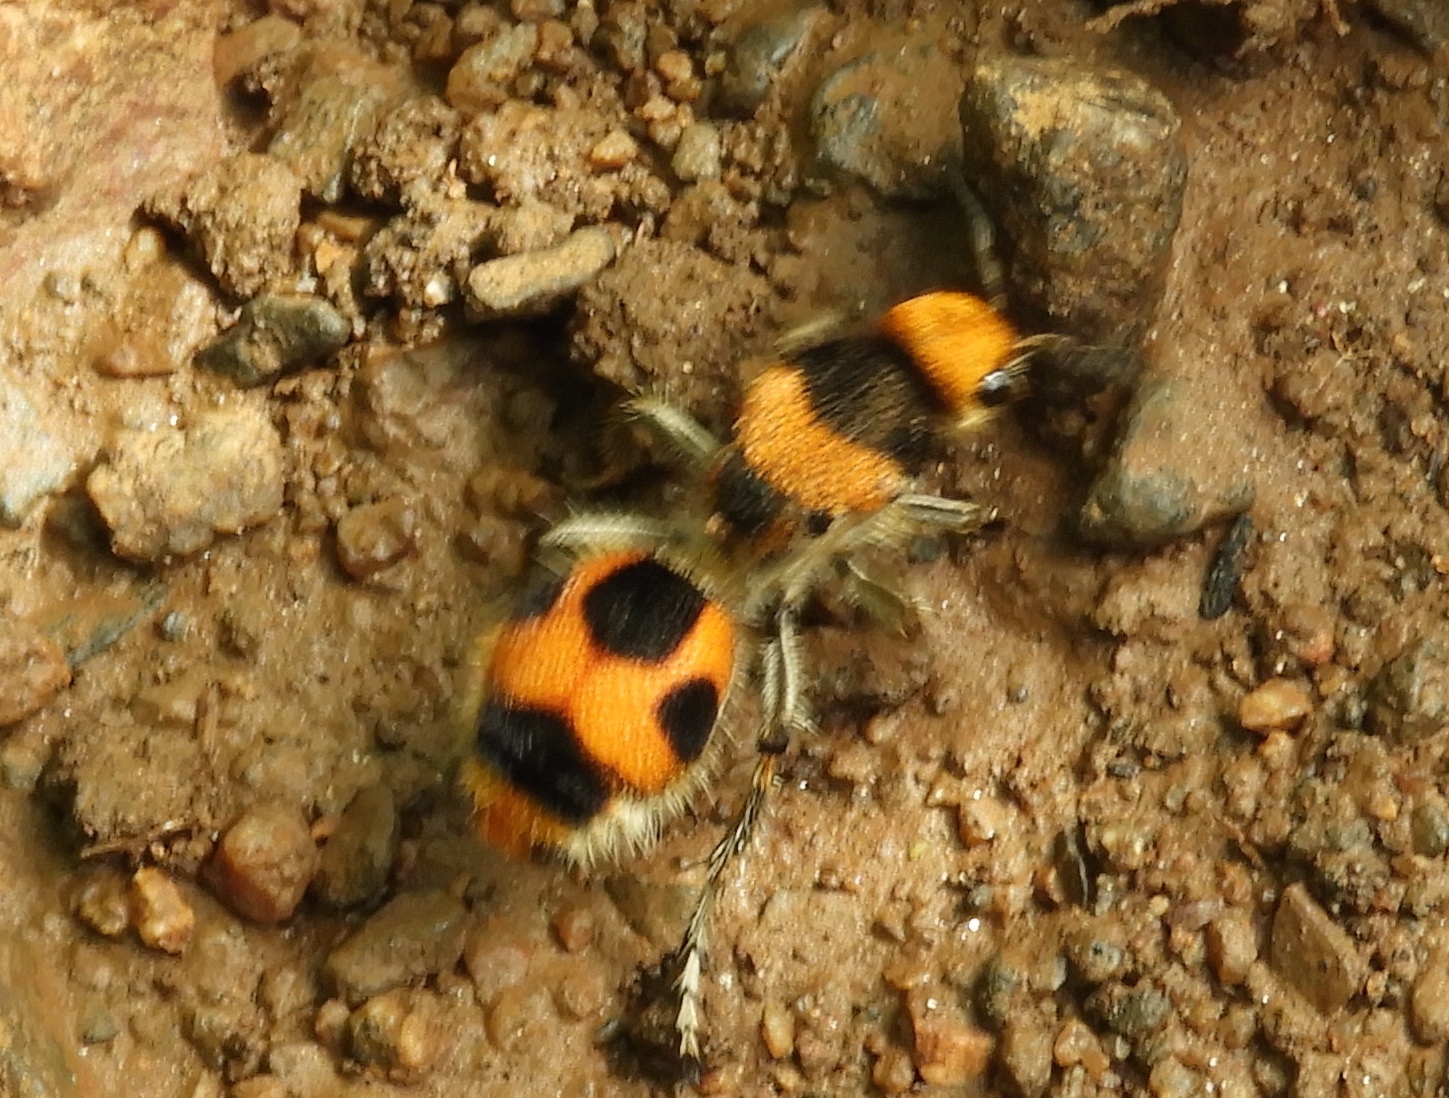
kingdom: Animalia
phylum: Arthropoda
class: Insecta
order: Hymenoptera
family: Mutillidae
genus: Dasymutilla
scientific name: Dasymutilla pulchra
